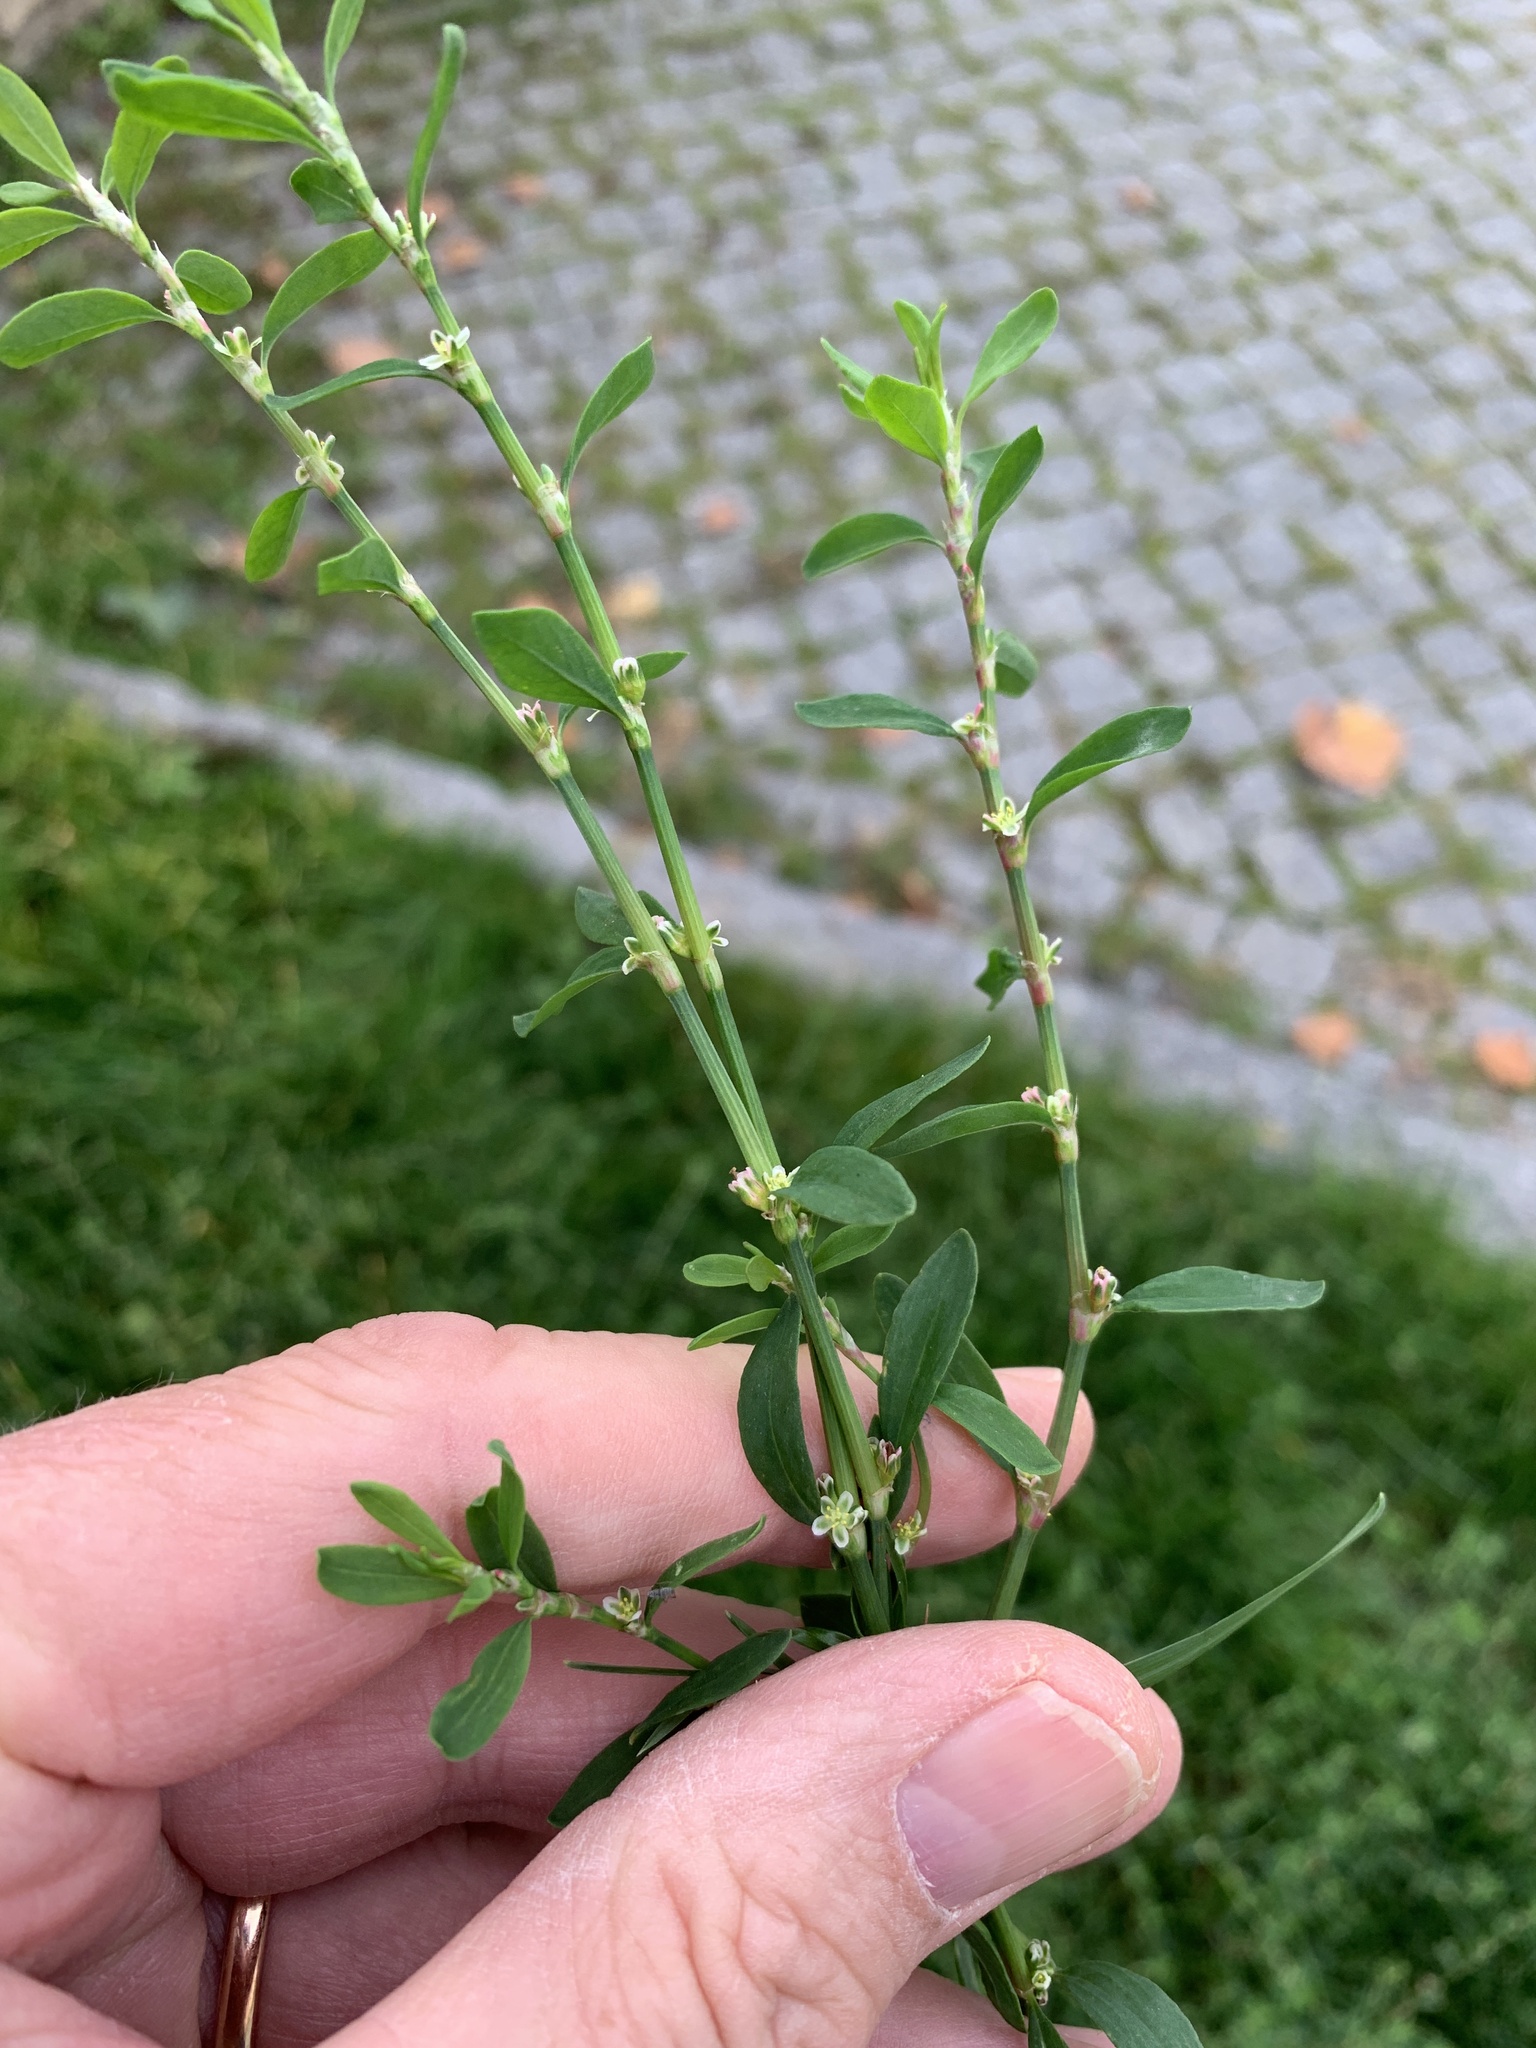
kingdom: Plantae
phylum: Tracheophyta
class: Magnoliopsida
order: Caryophyllales
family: Polygonaceae
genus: Polygonum
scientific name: Polygonum aviculare
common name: Prostrate knotweed
